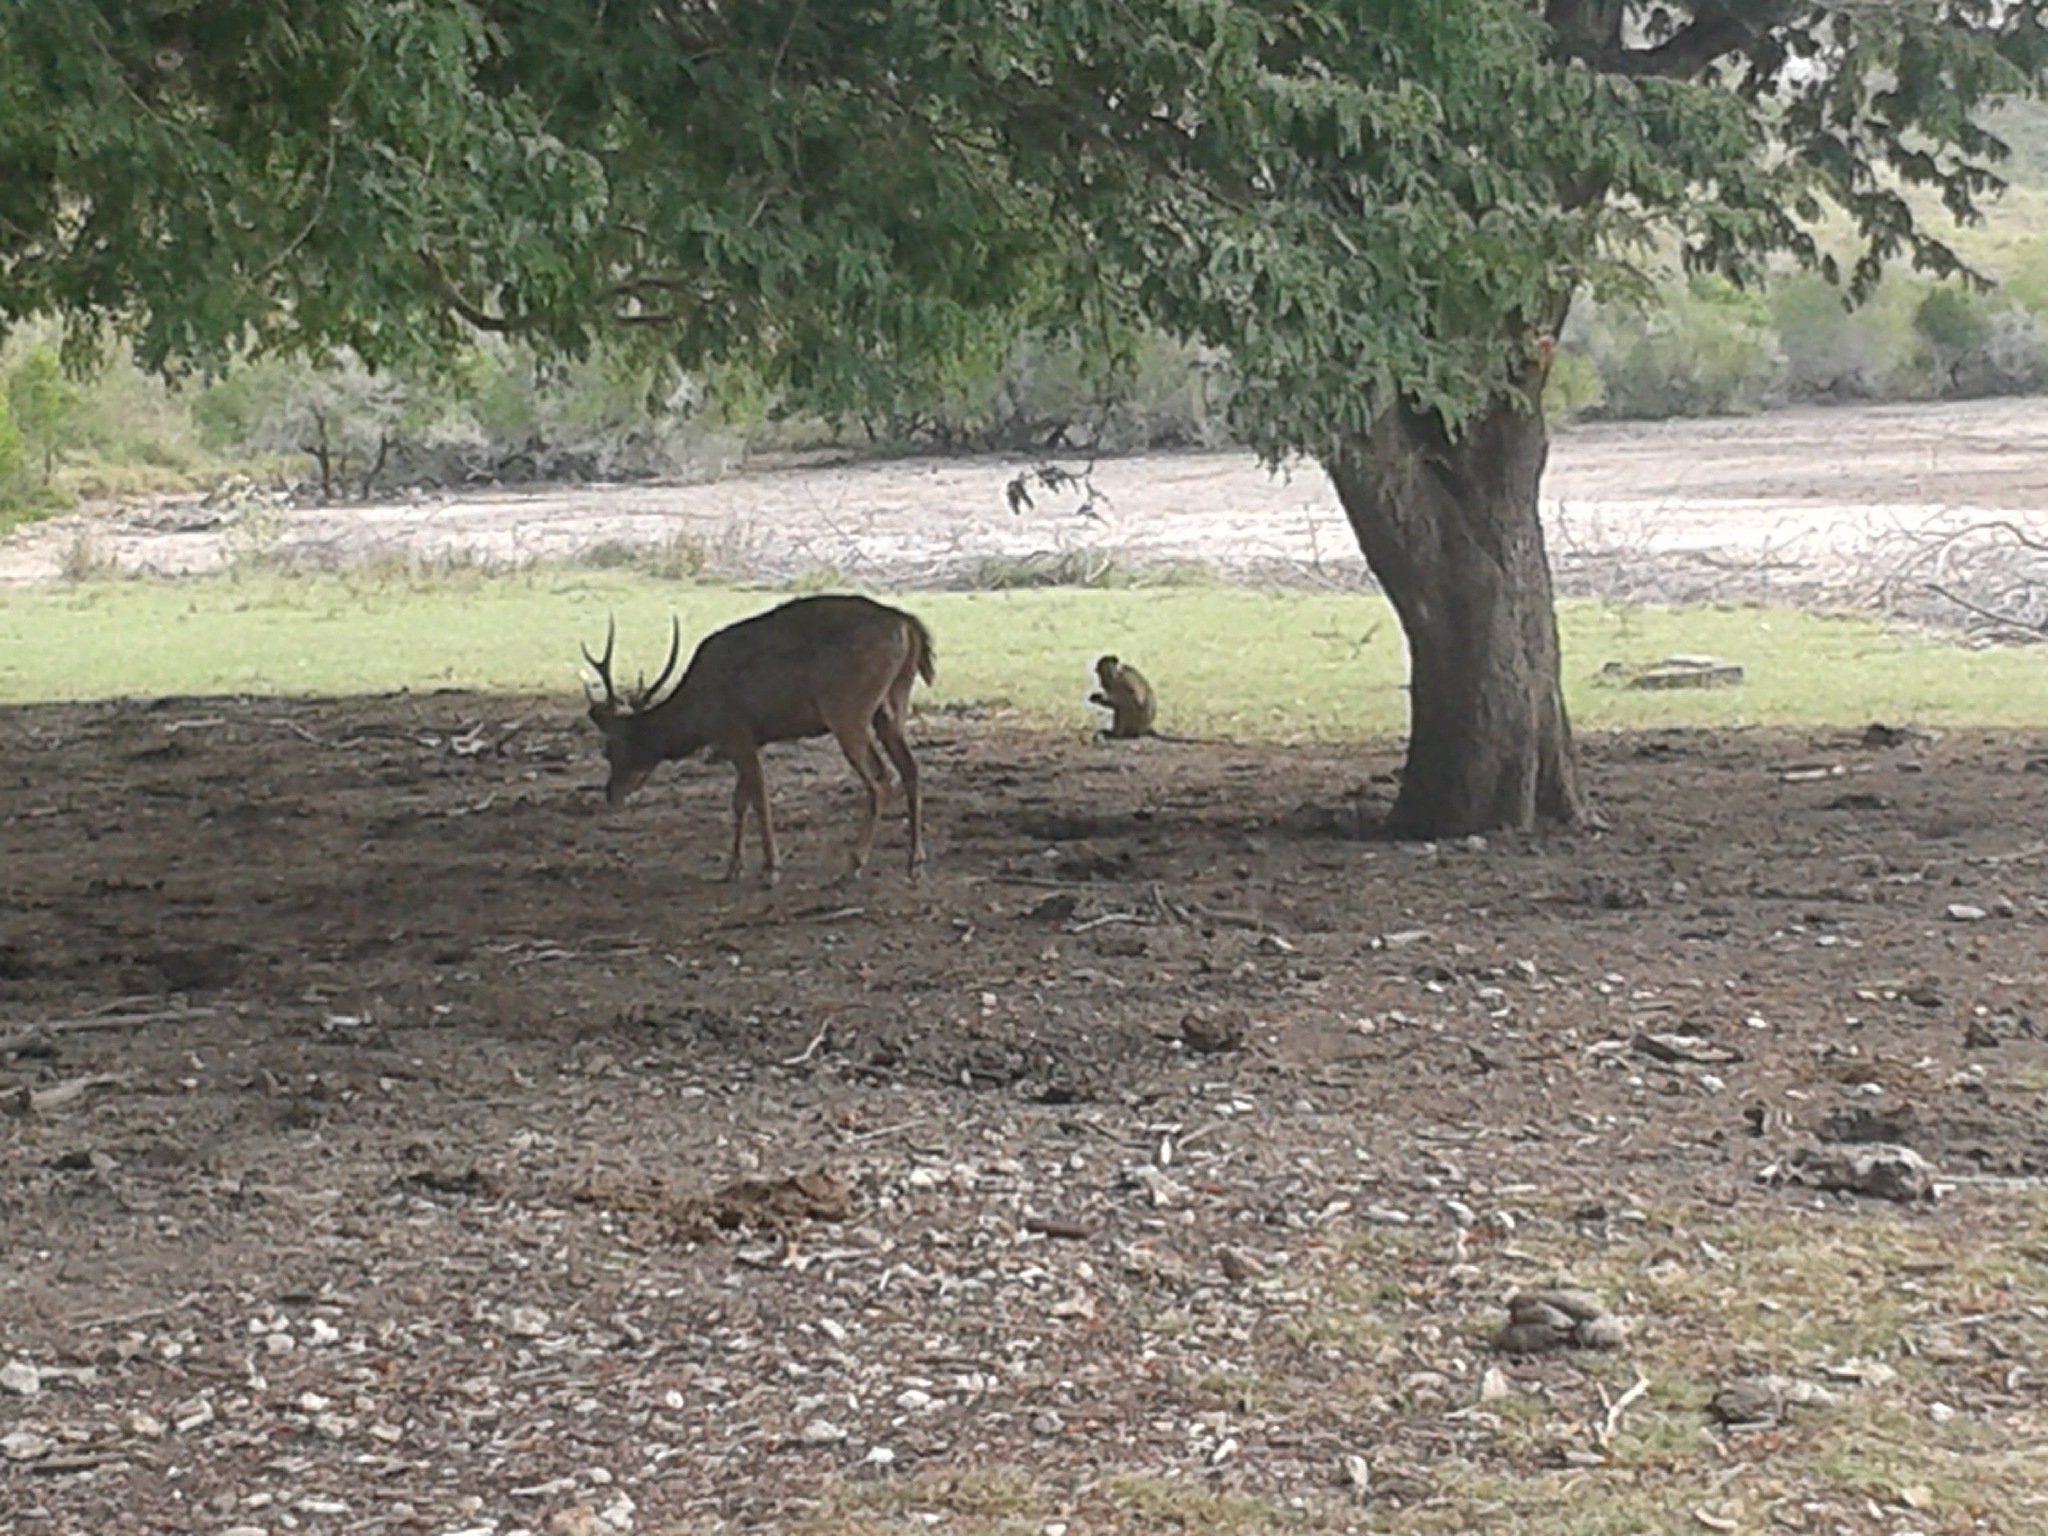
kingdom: Animalia
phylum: Chordata
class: Mammalia
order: Artiodactyla
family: Cervidae
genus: Rusa
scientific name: Rusa timorensis
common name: Javan rusa
